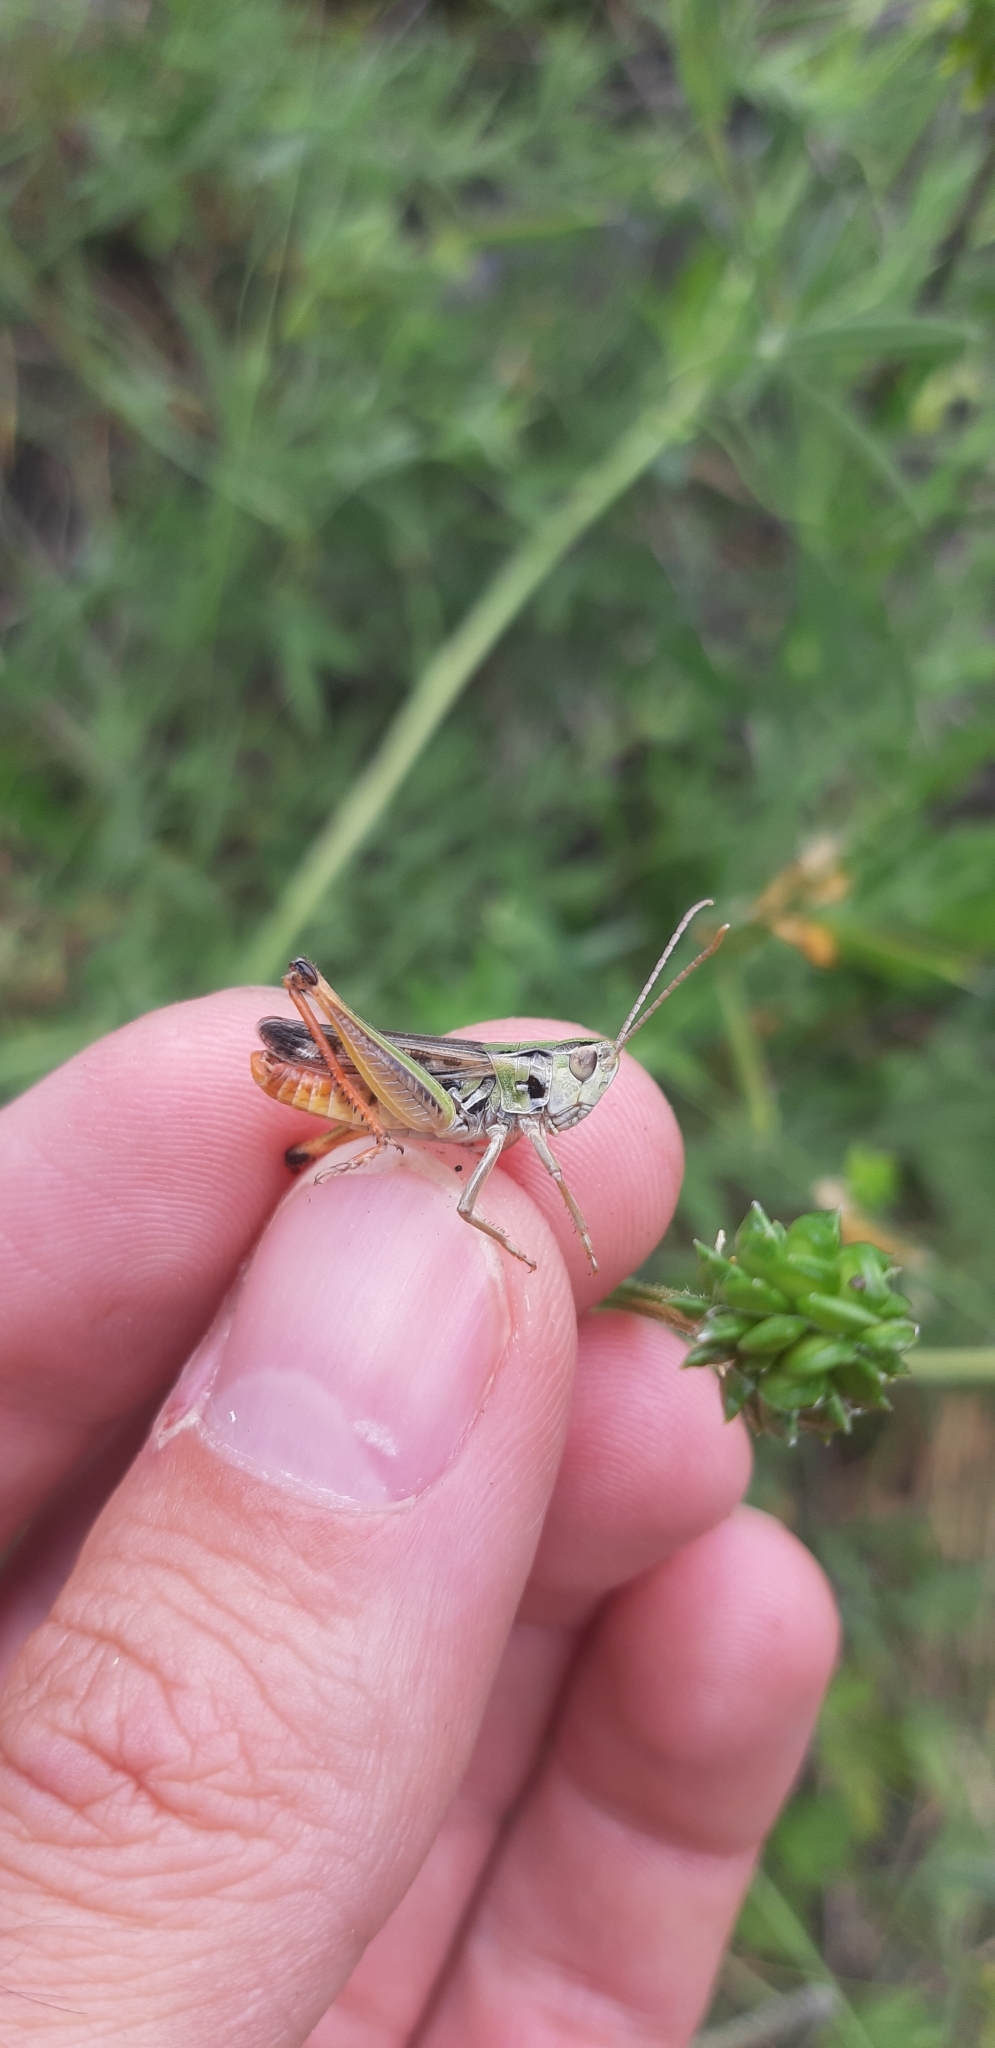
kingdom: Animalia
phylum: Arthropoda
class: Insecta
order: Orthoptera
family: Acrididae
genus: Stenobothrus
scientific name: Stenobothrus nigromaculatus
